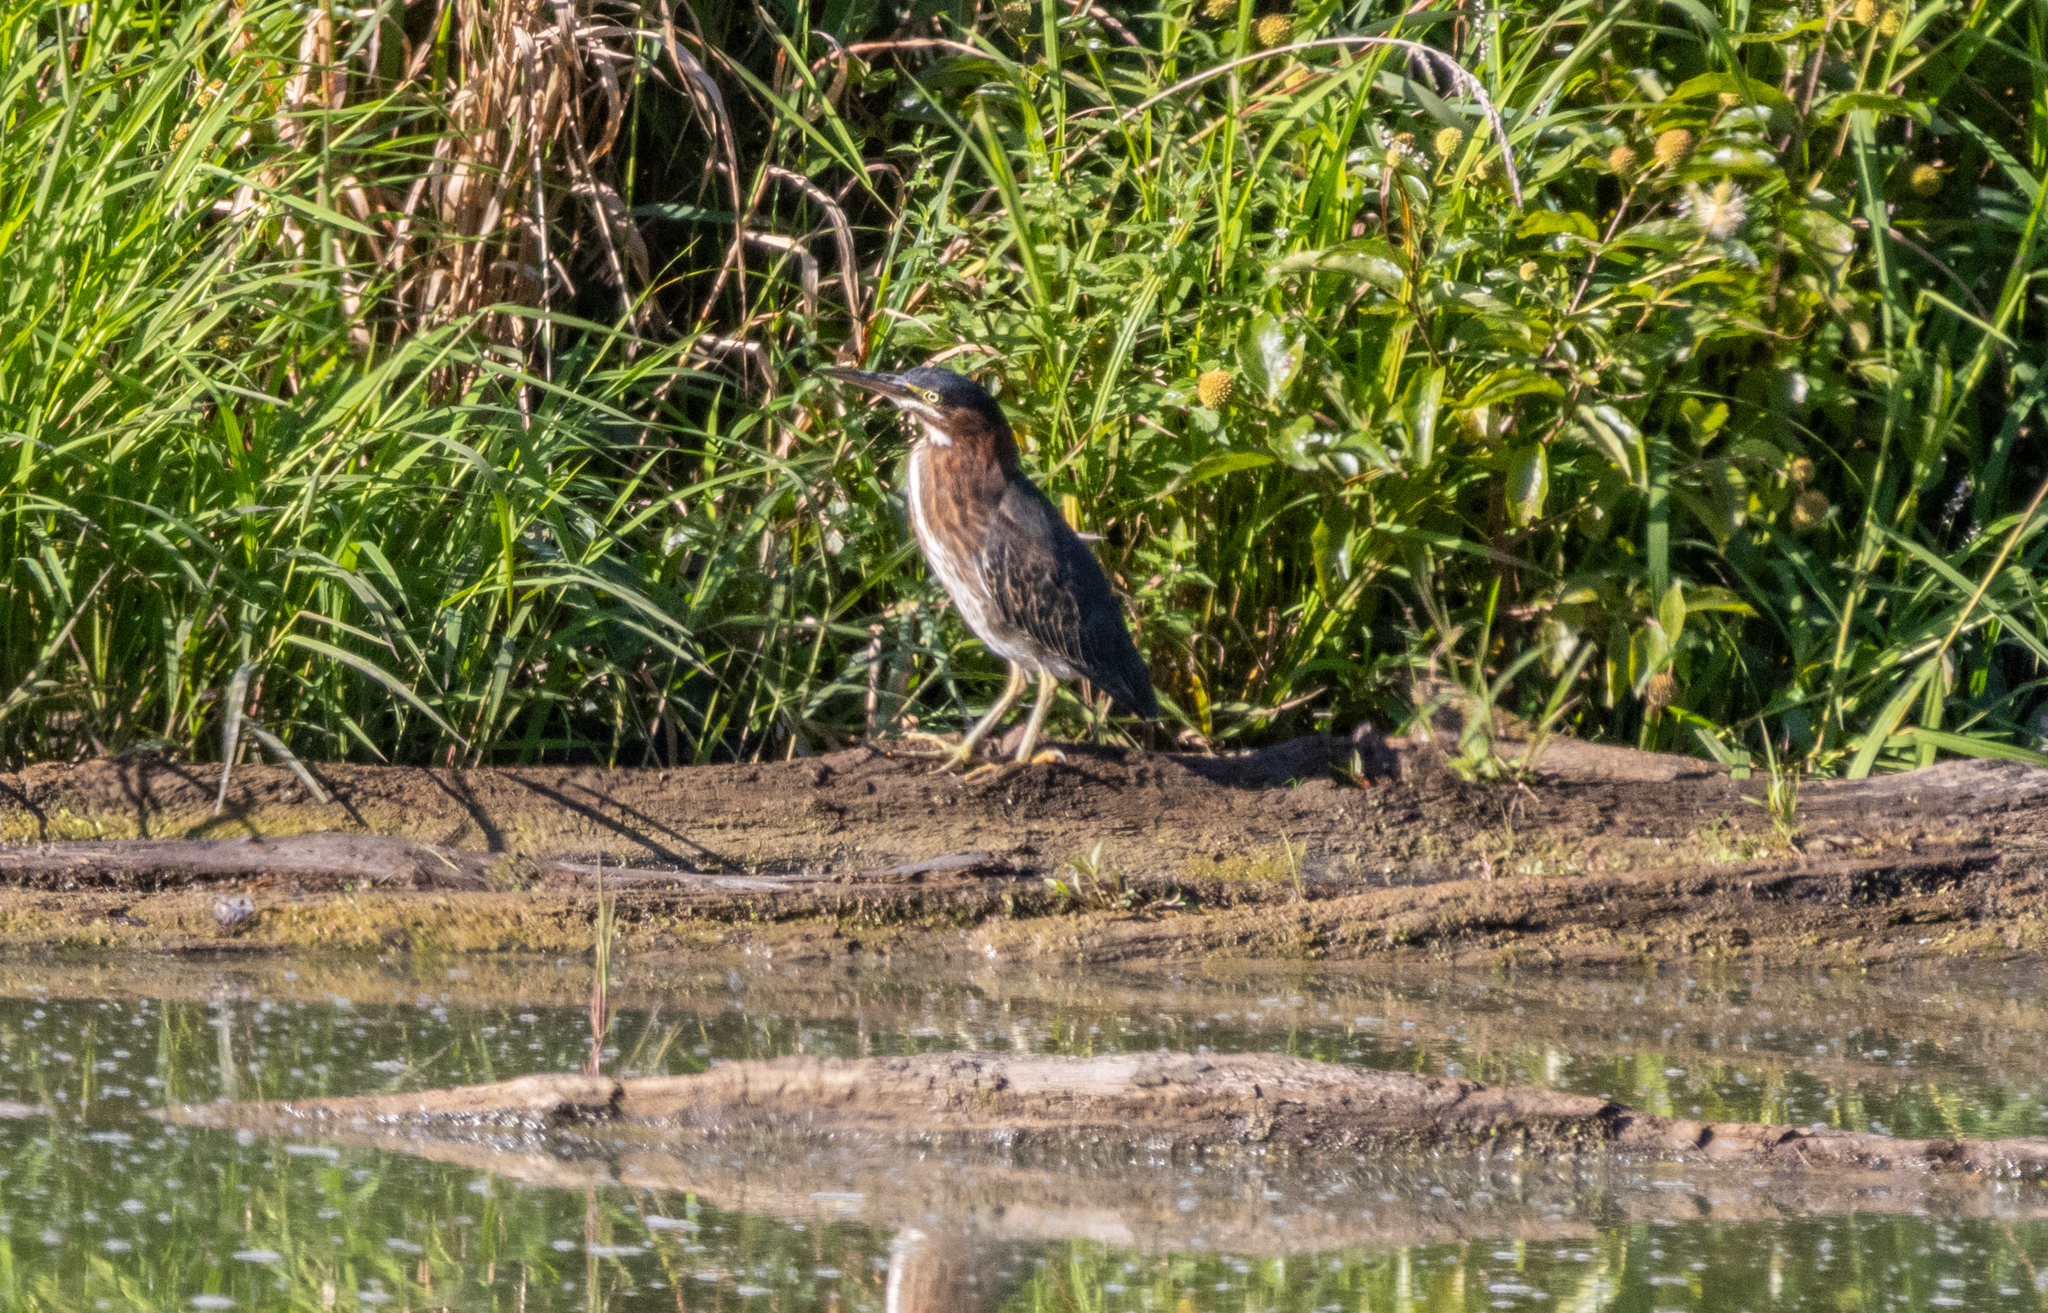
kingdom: Animalia
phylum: Chordata
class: Aves
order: Pelecaniformes
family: Ardeidae
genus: Butorides
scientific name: Butorides virescens
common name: Green heron
